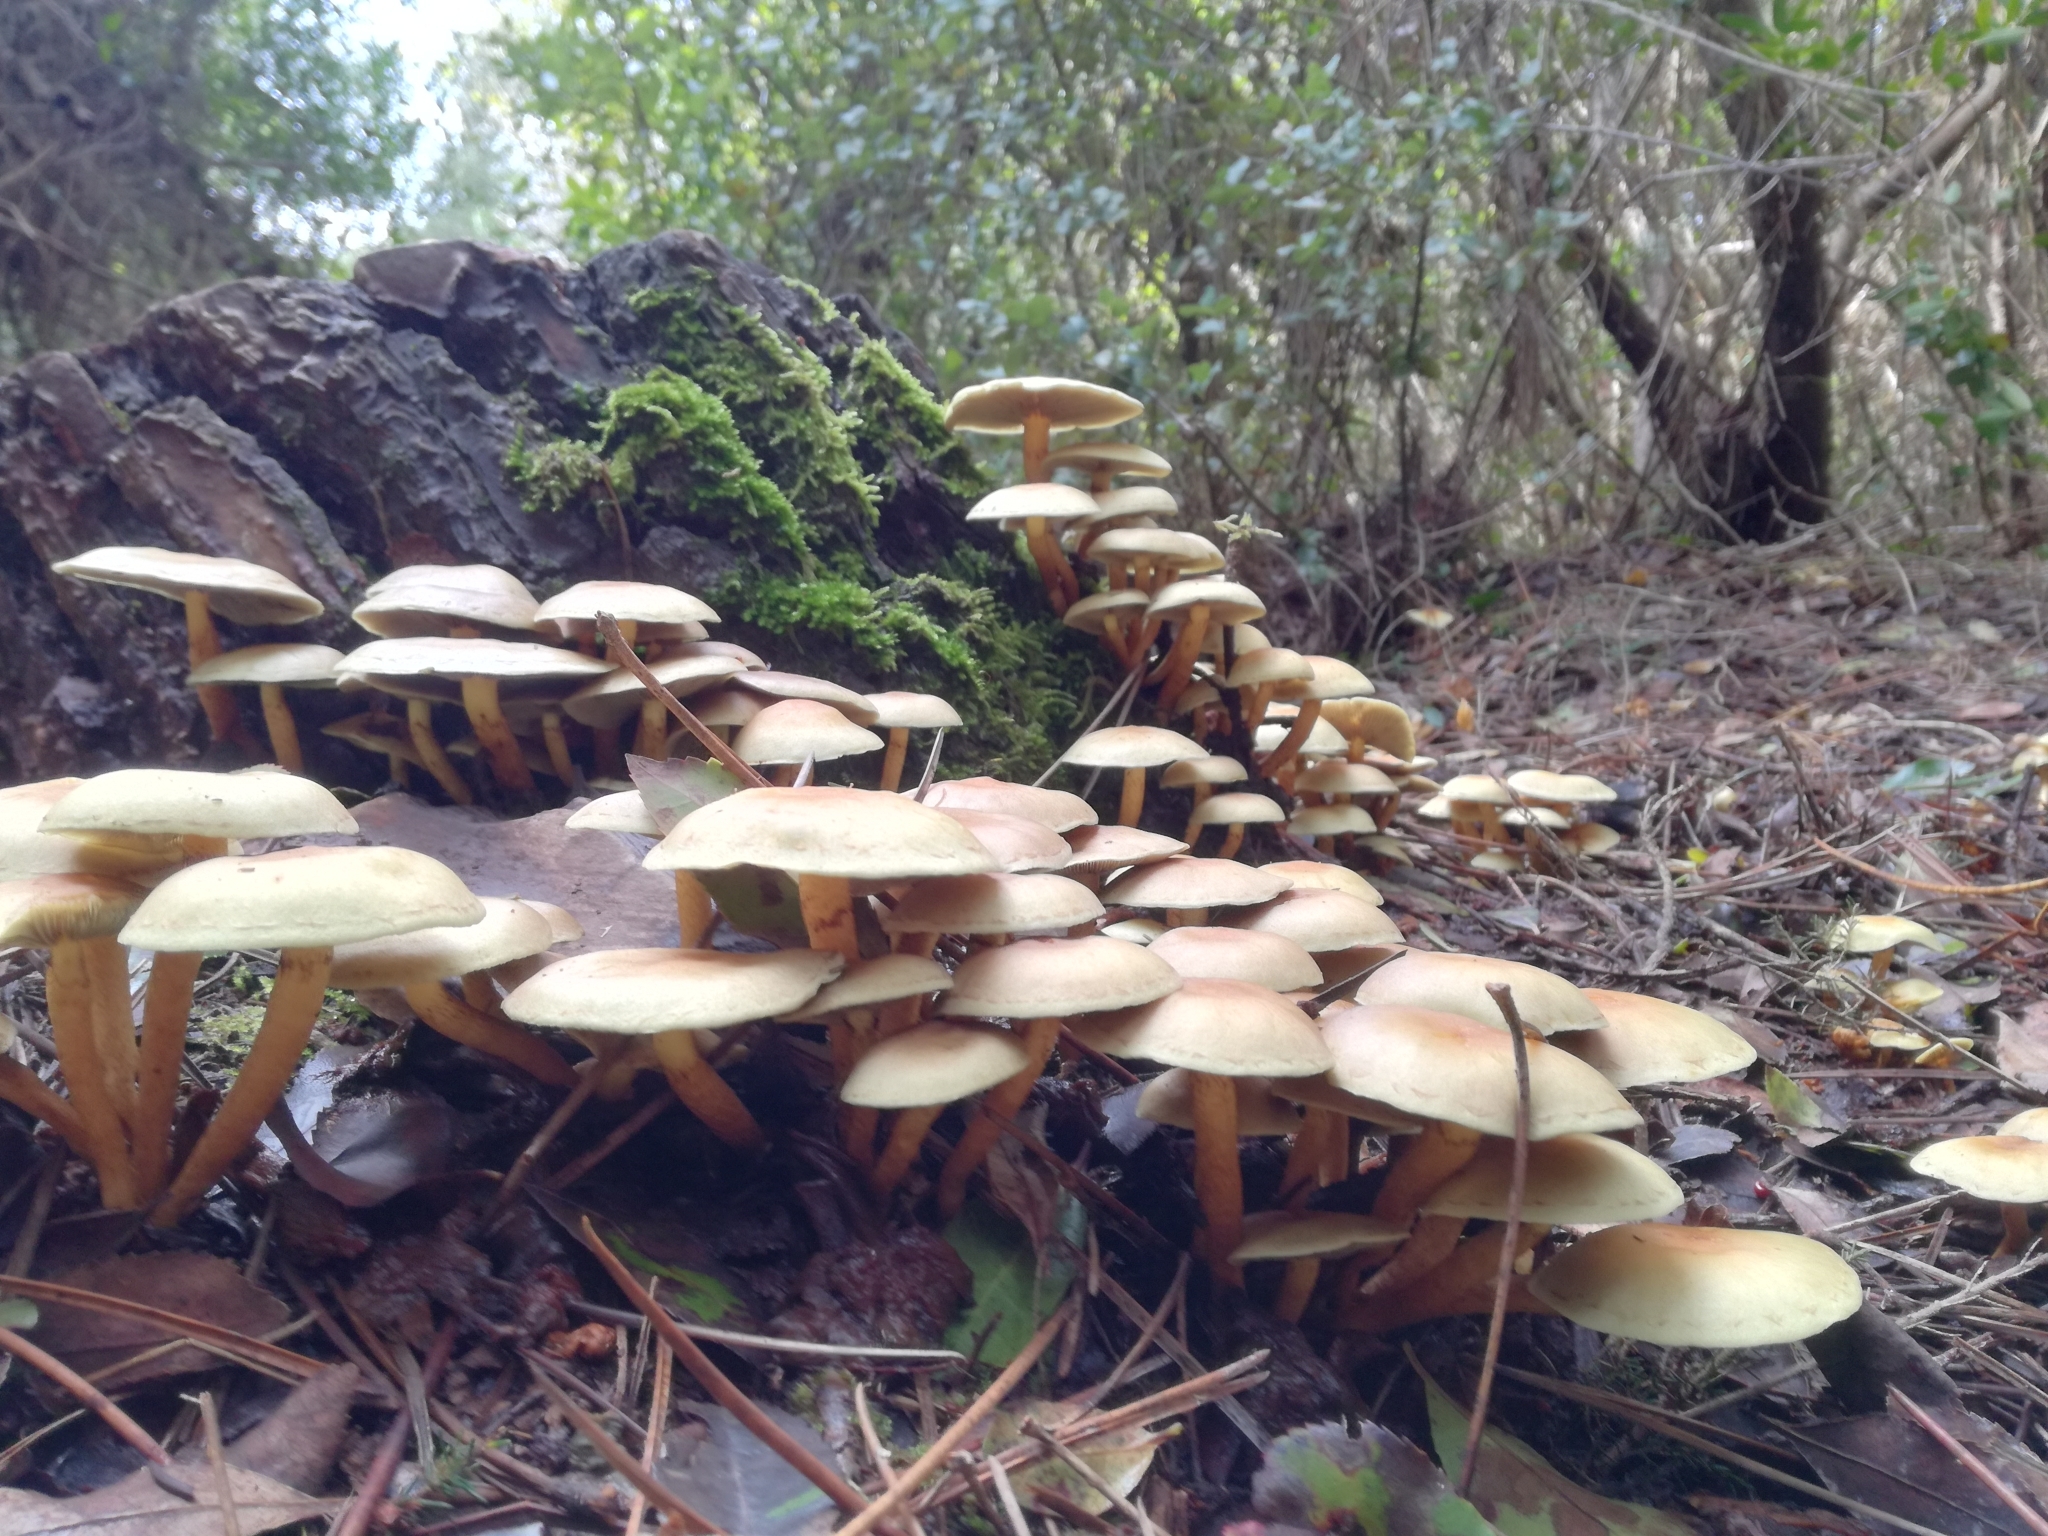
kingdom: Fungi
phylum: Basidiomycota
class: Agaricomycetes
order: Agaricales
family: Strophariaceae
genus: Hypholoma
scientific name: Hypholoma fasciculare
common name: Sulphur tuft
